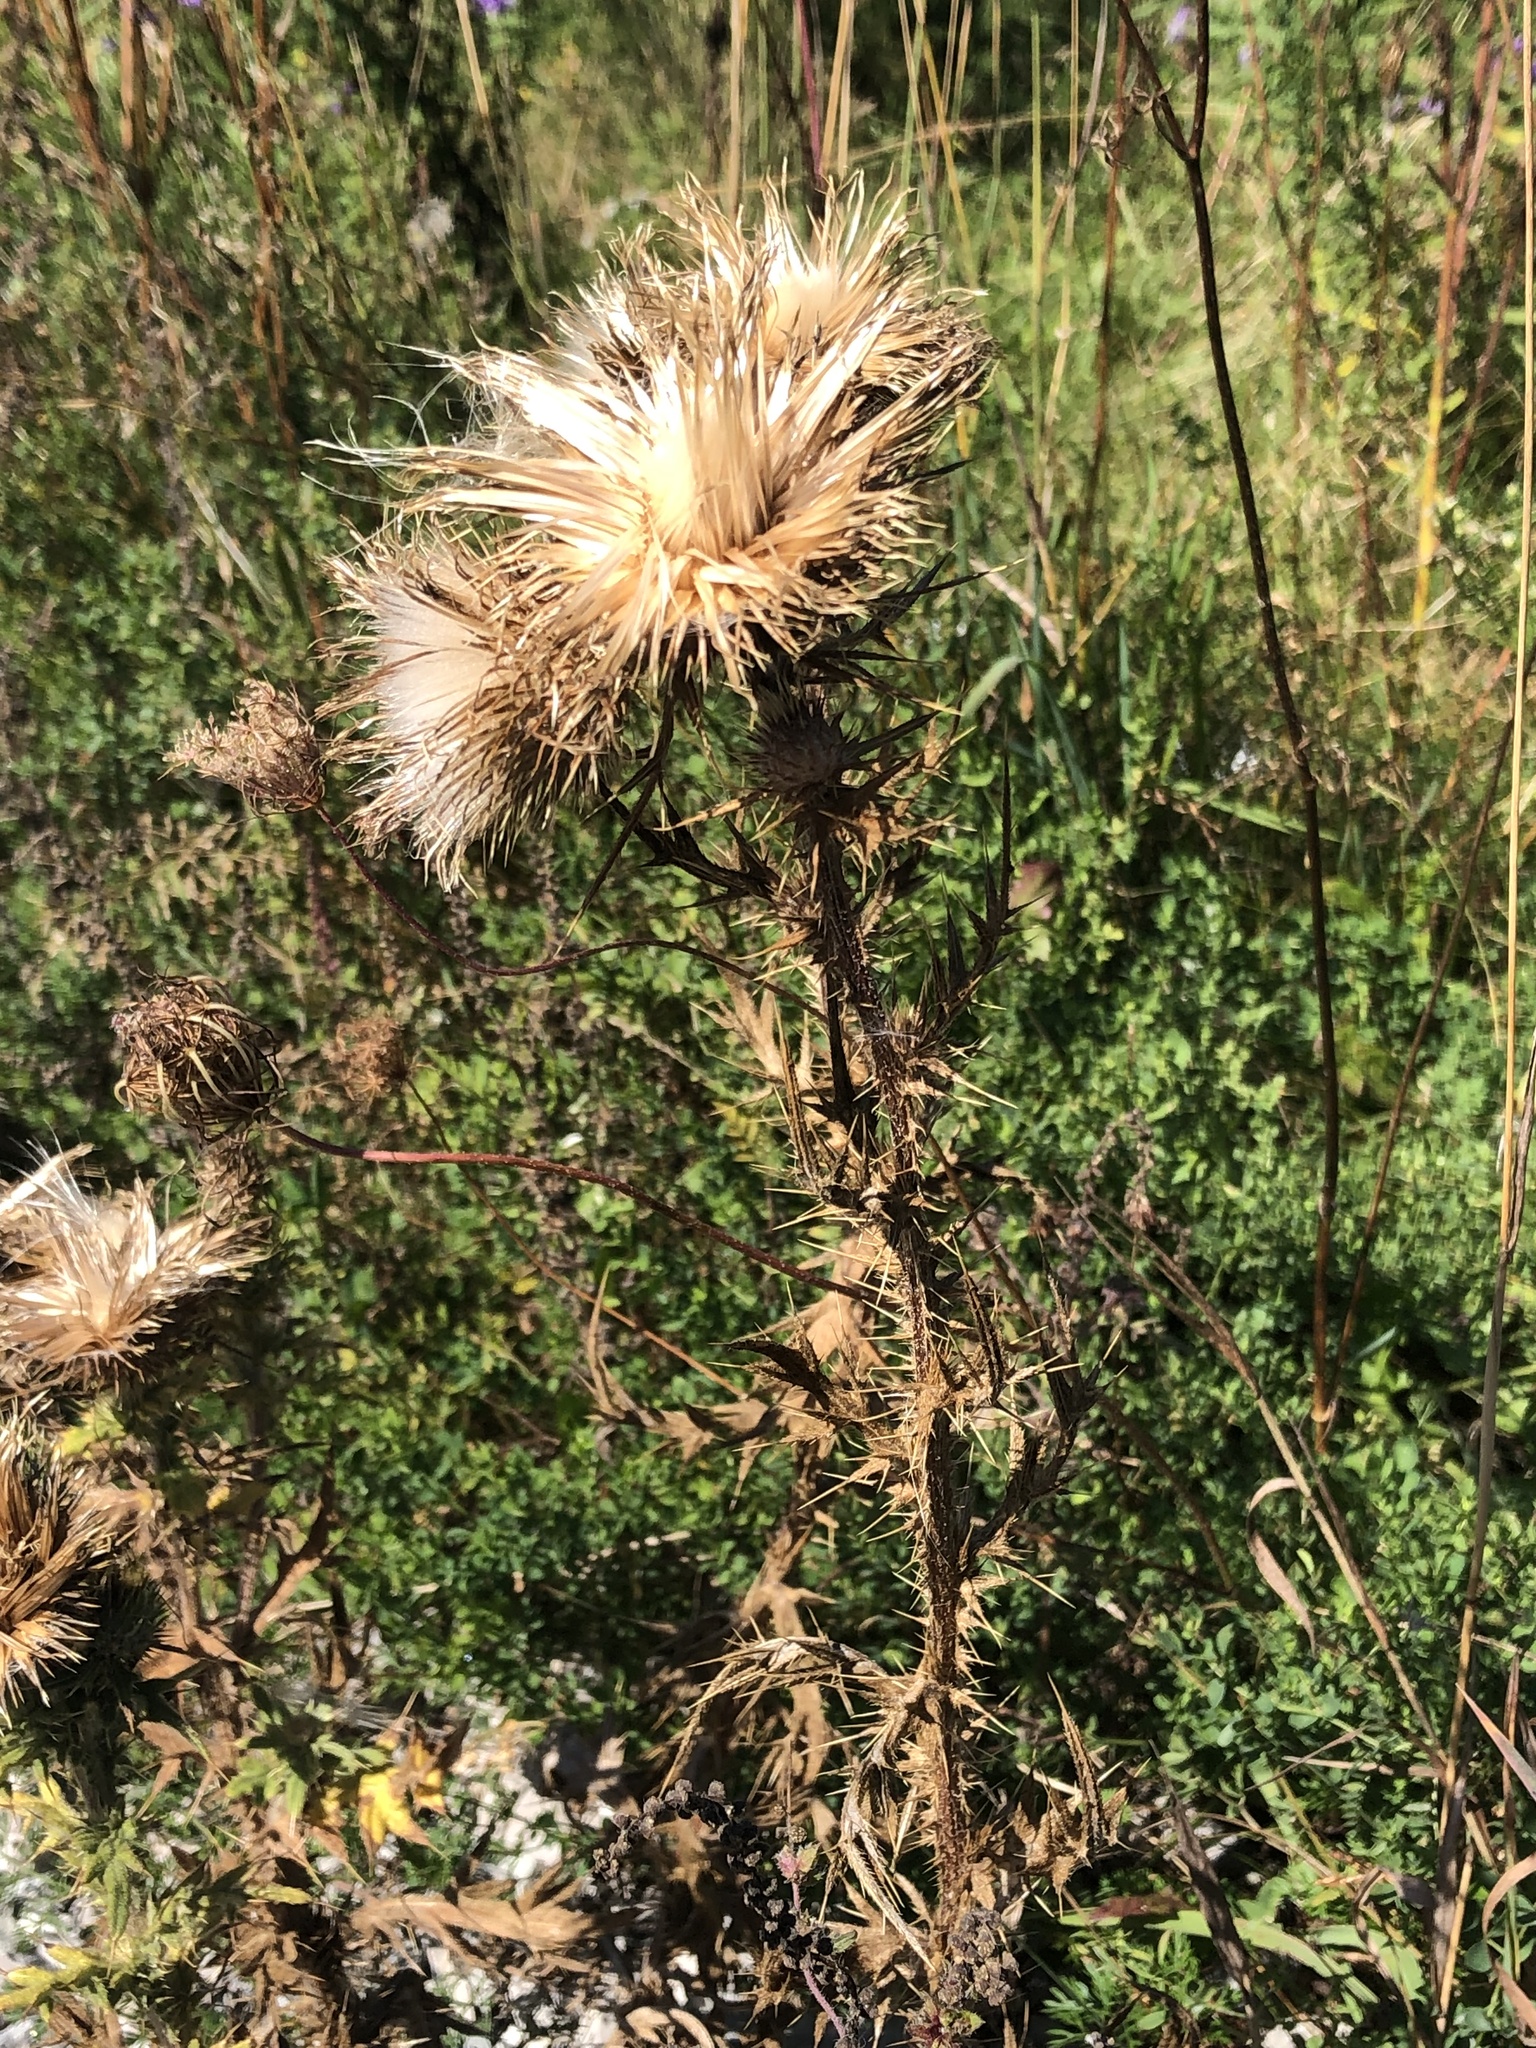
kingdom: Plantae
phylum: Tracheophyta
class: Magnoliopsida
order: Asterales
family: Asteraceae
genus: Cirsium
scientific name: Cirsium vulgare
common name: Bull thistle
